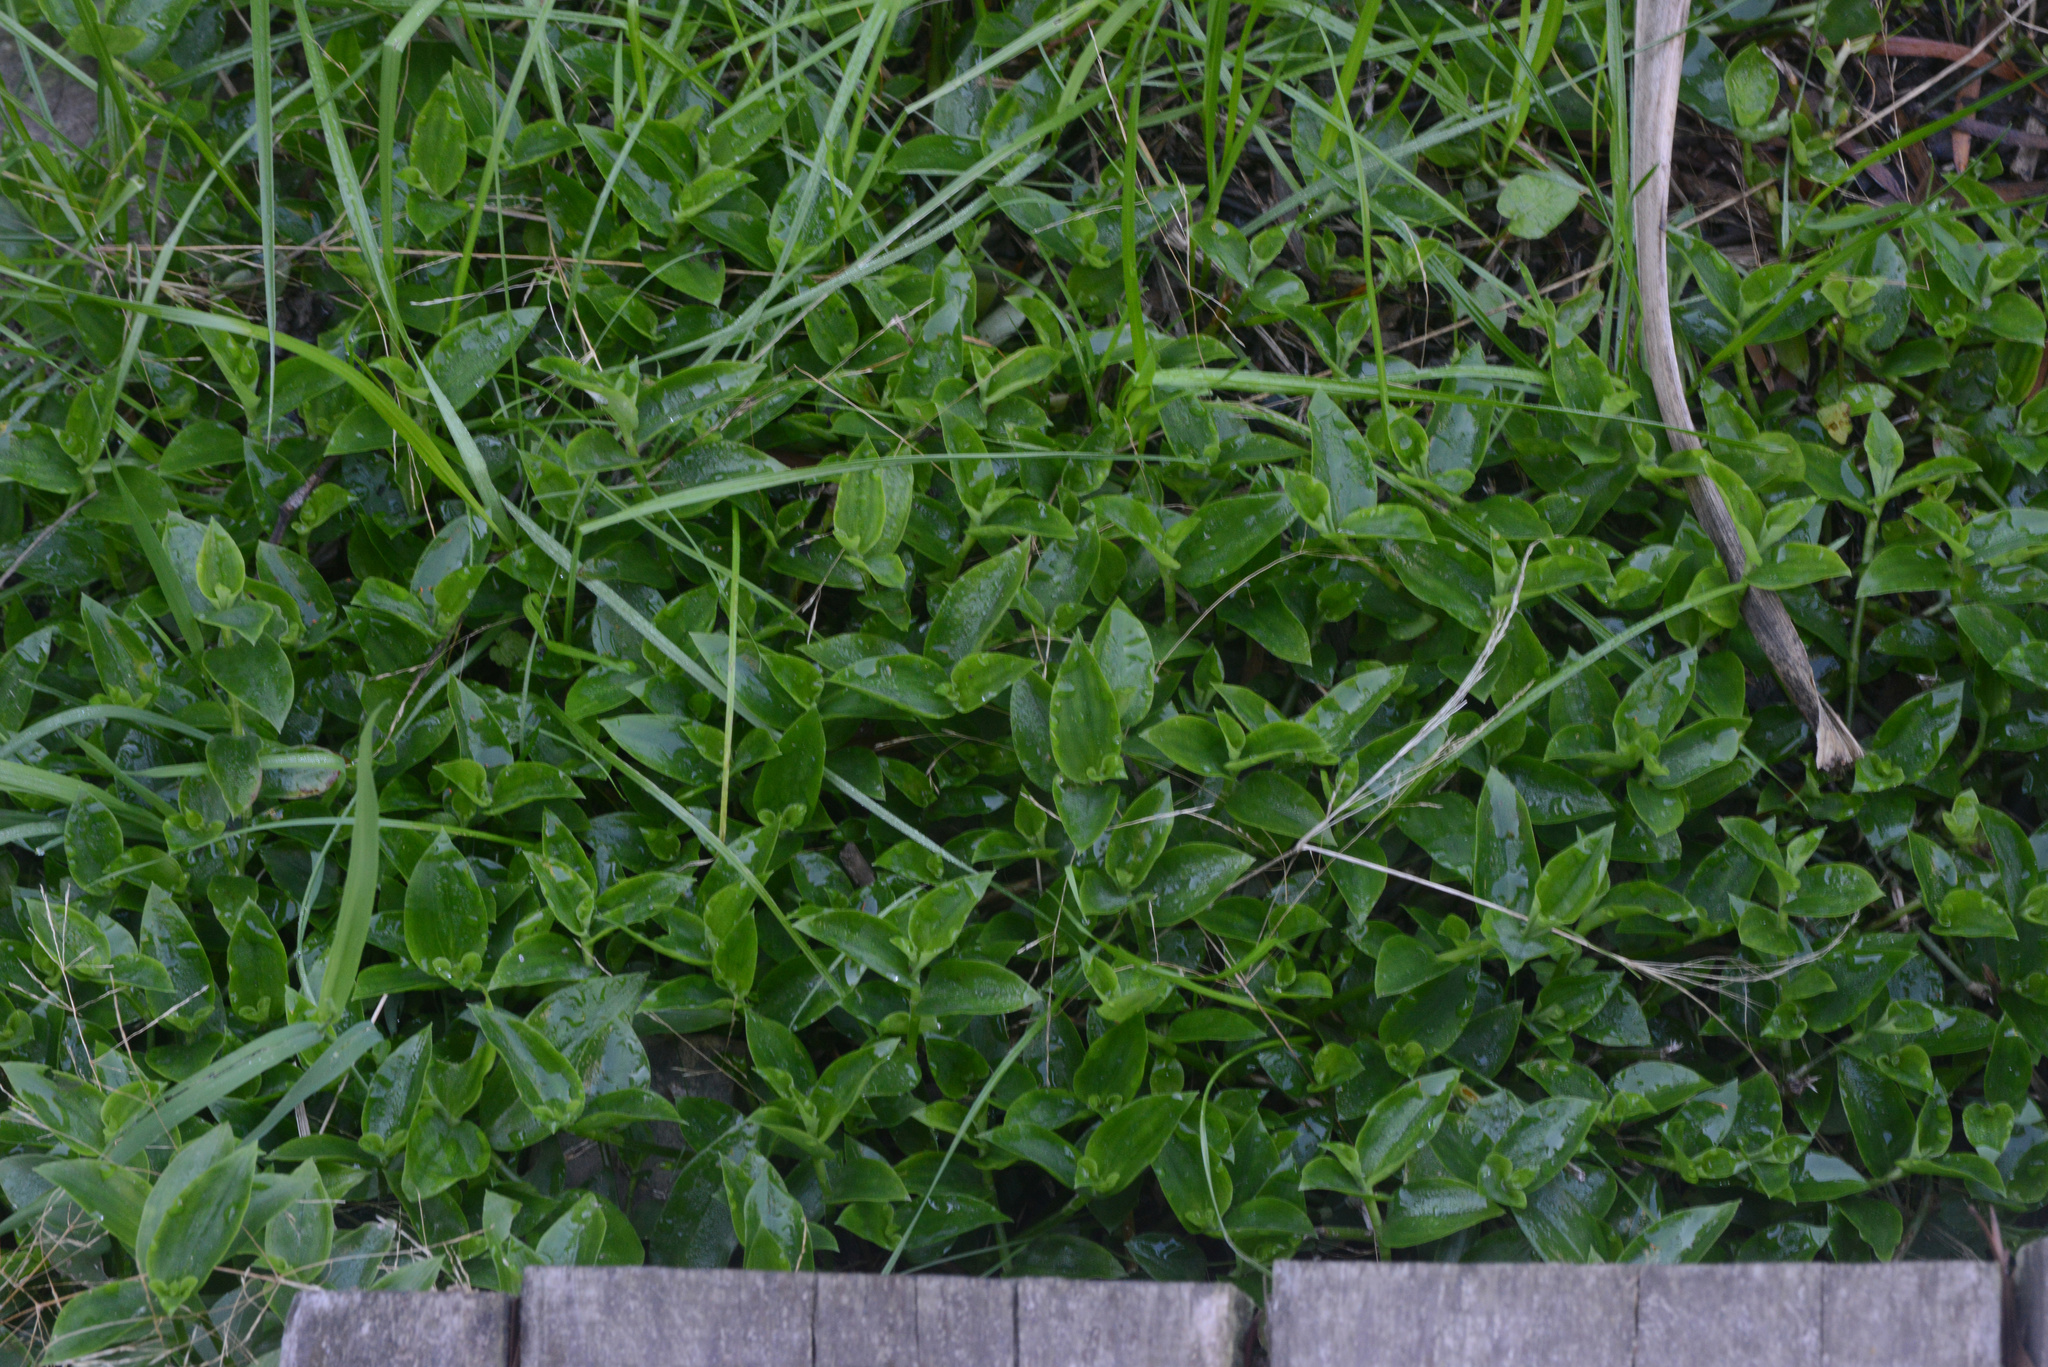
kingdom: Plantae
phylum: Tracheophyta
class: Liliopsida
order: Commelinales
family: Commelinaceae
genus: Tradescantia
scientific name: Tradescantia fluminensis
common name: Wandering-jew
